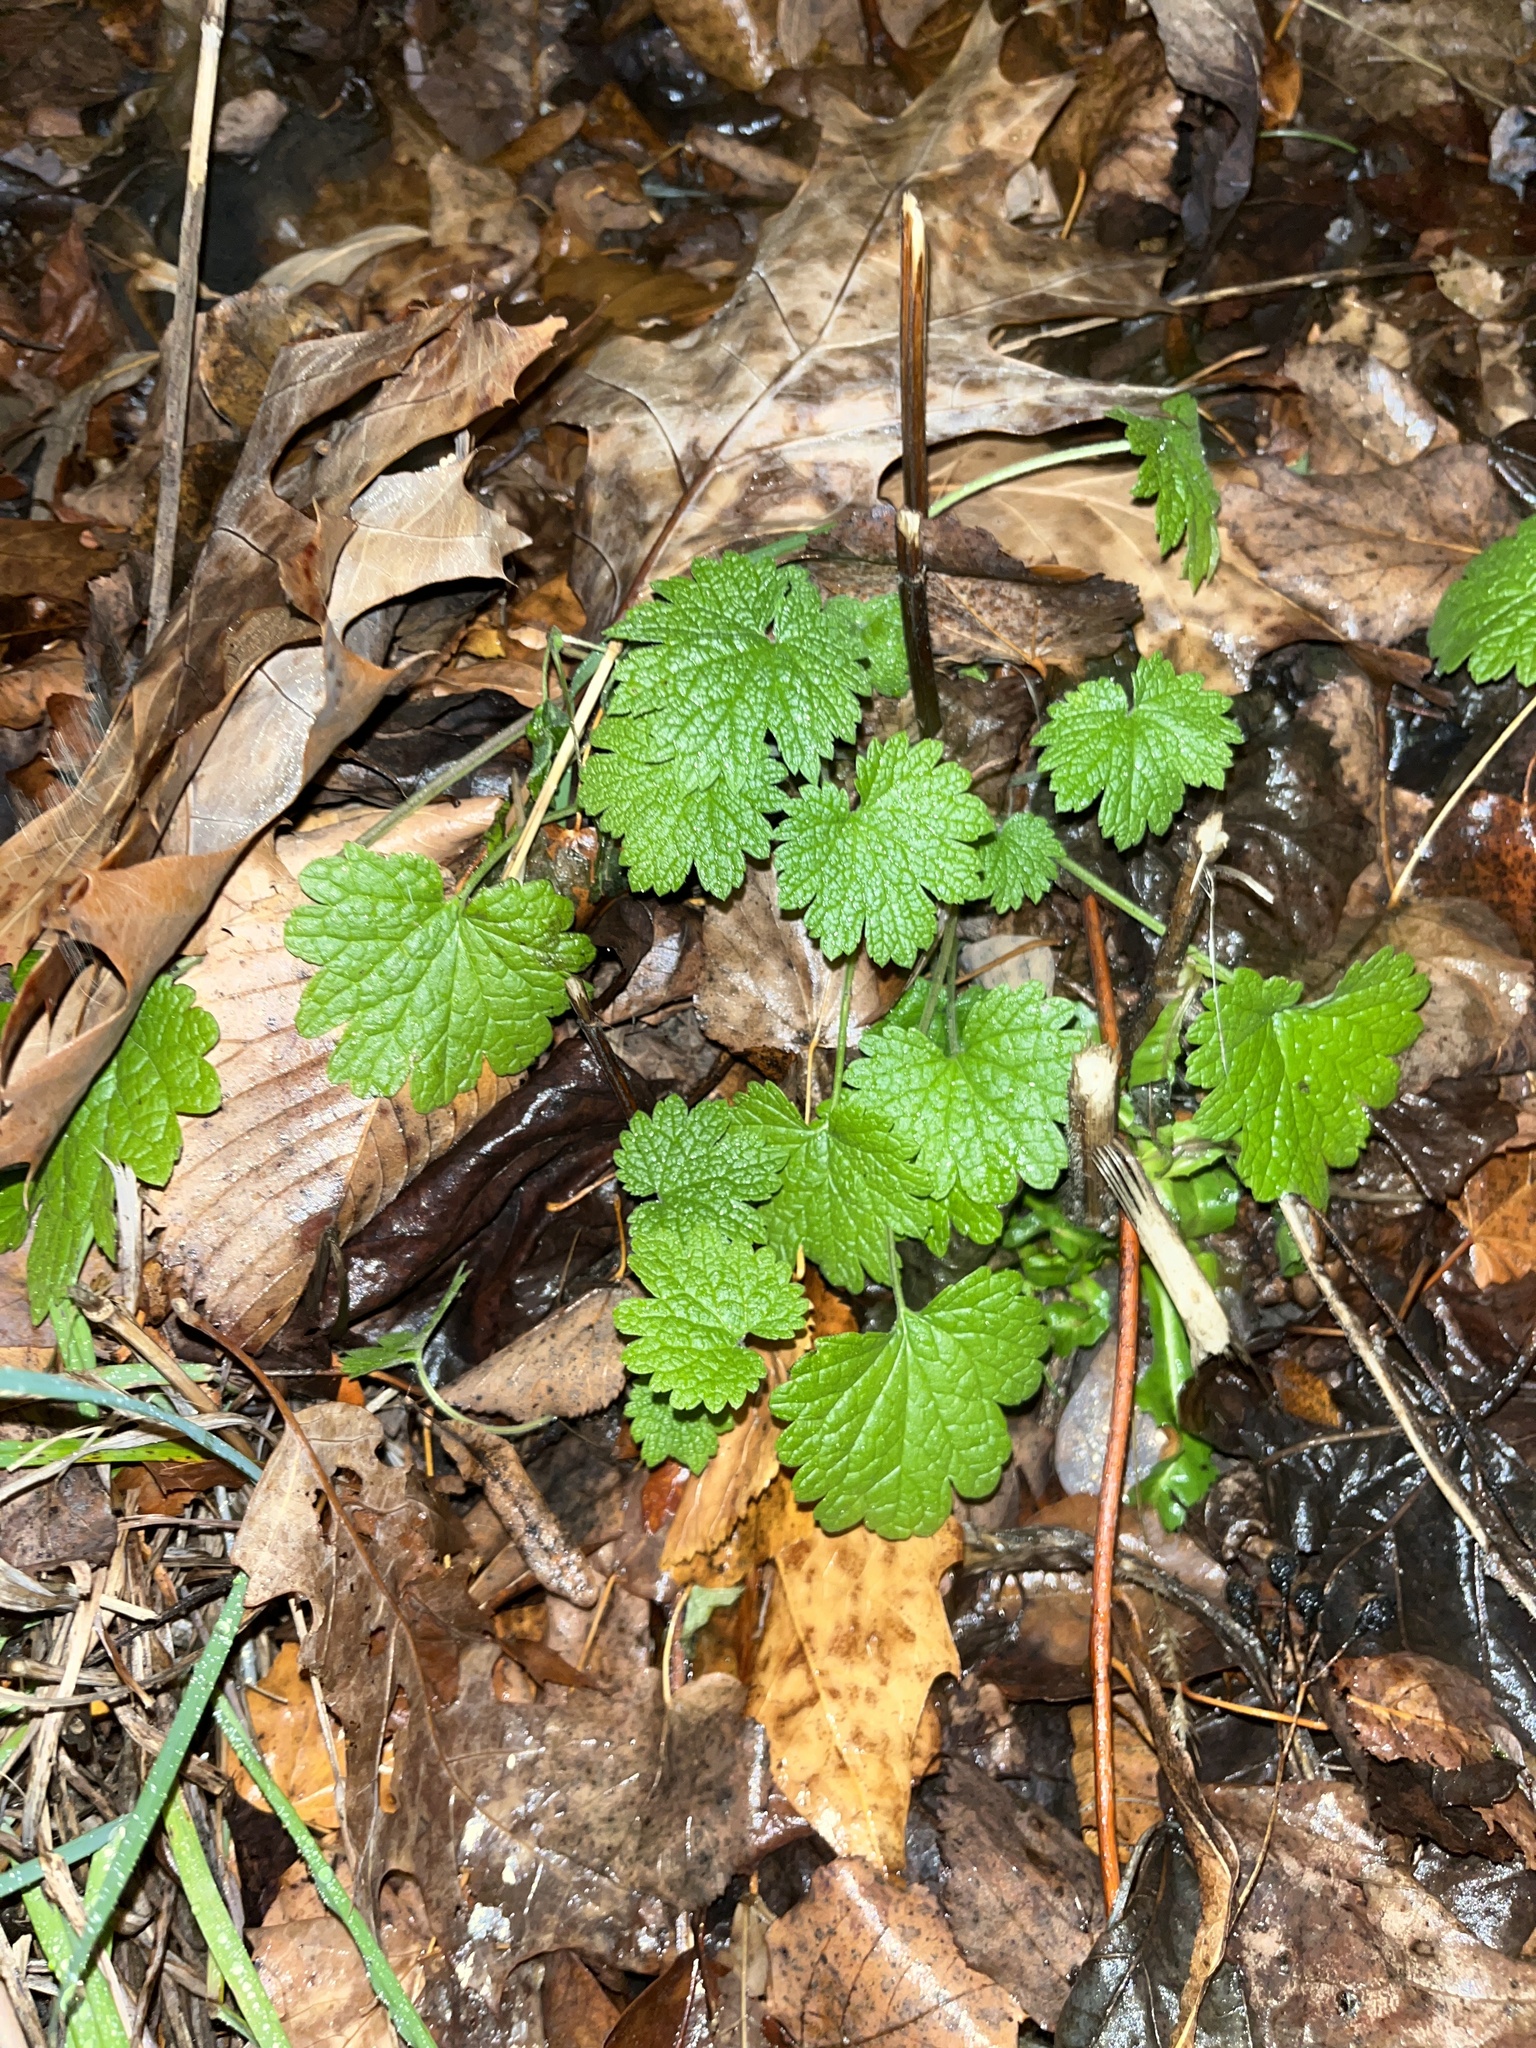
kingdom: Plantae
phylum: Tracheophyta
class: Magnoliopsida
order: Lamiales
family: Lamiaceae
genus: Leonurus
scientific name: Leonurus cardiaca
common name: Motherwort
